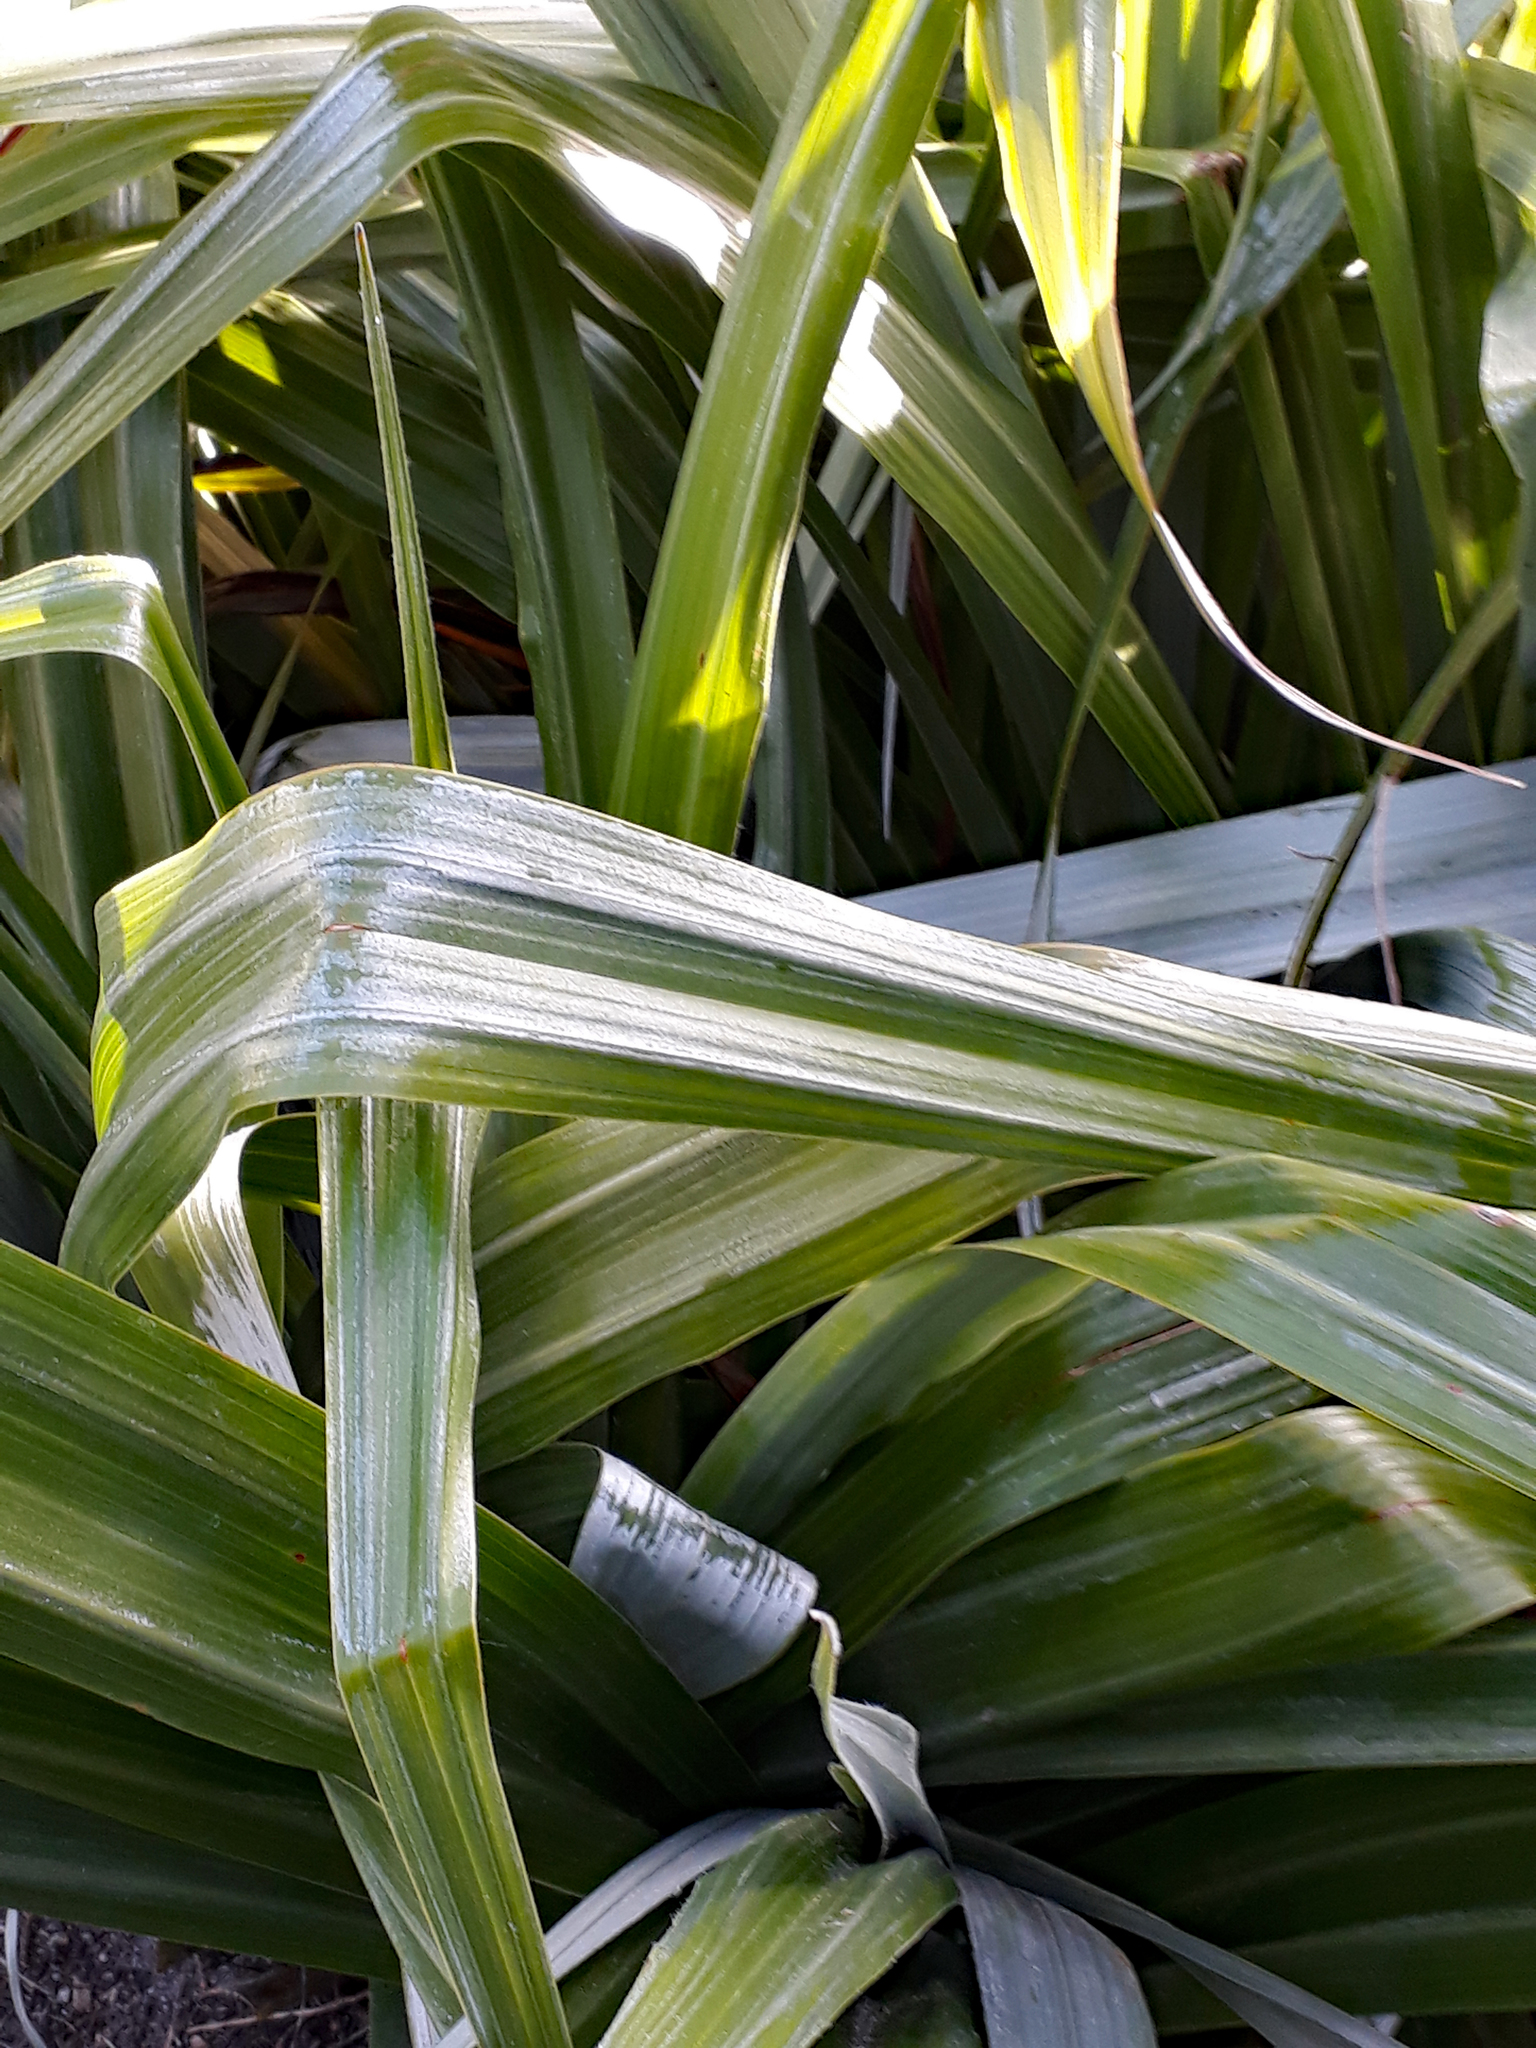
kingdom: Plantae
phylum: Tracheophyta
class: Liliopsida
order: Asparagales
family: Asteliaceae
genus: Astelia
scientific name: Astelia chathamica
